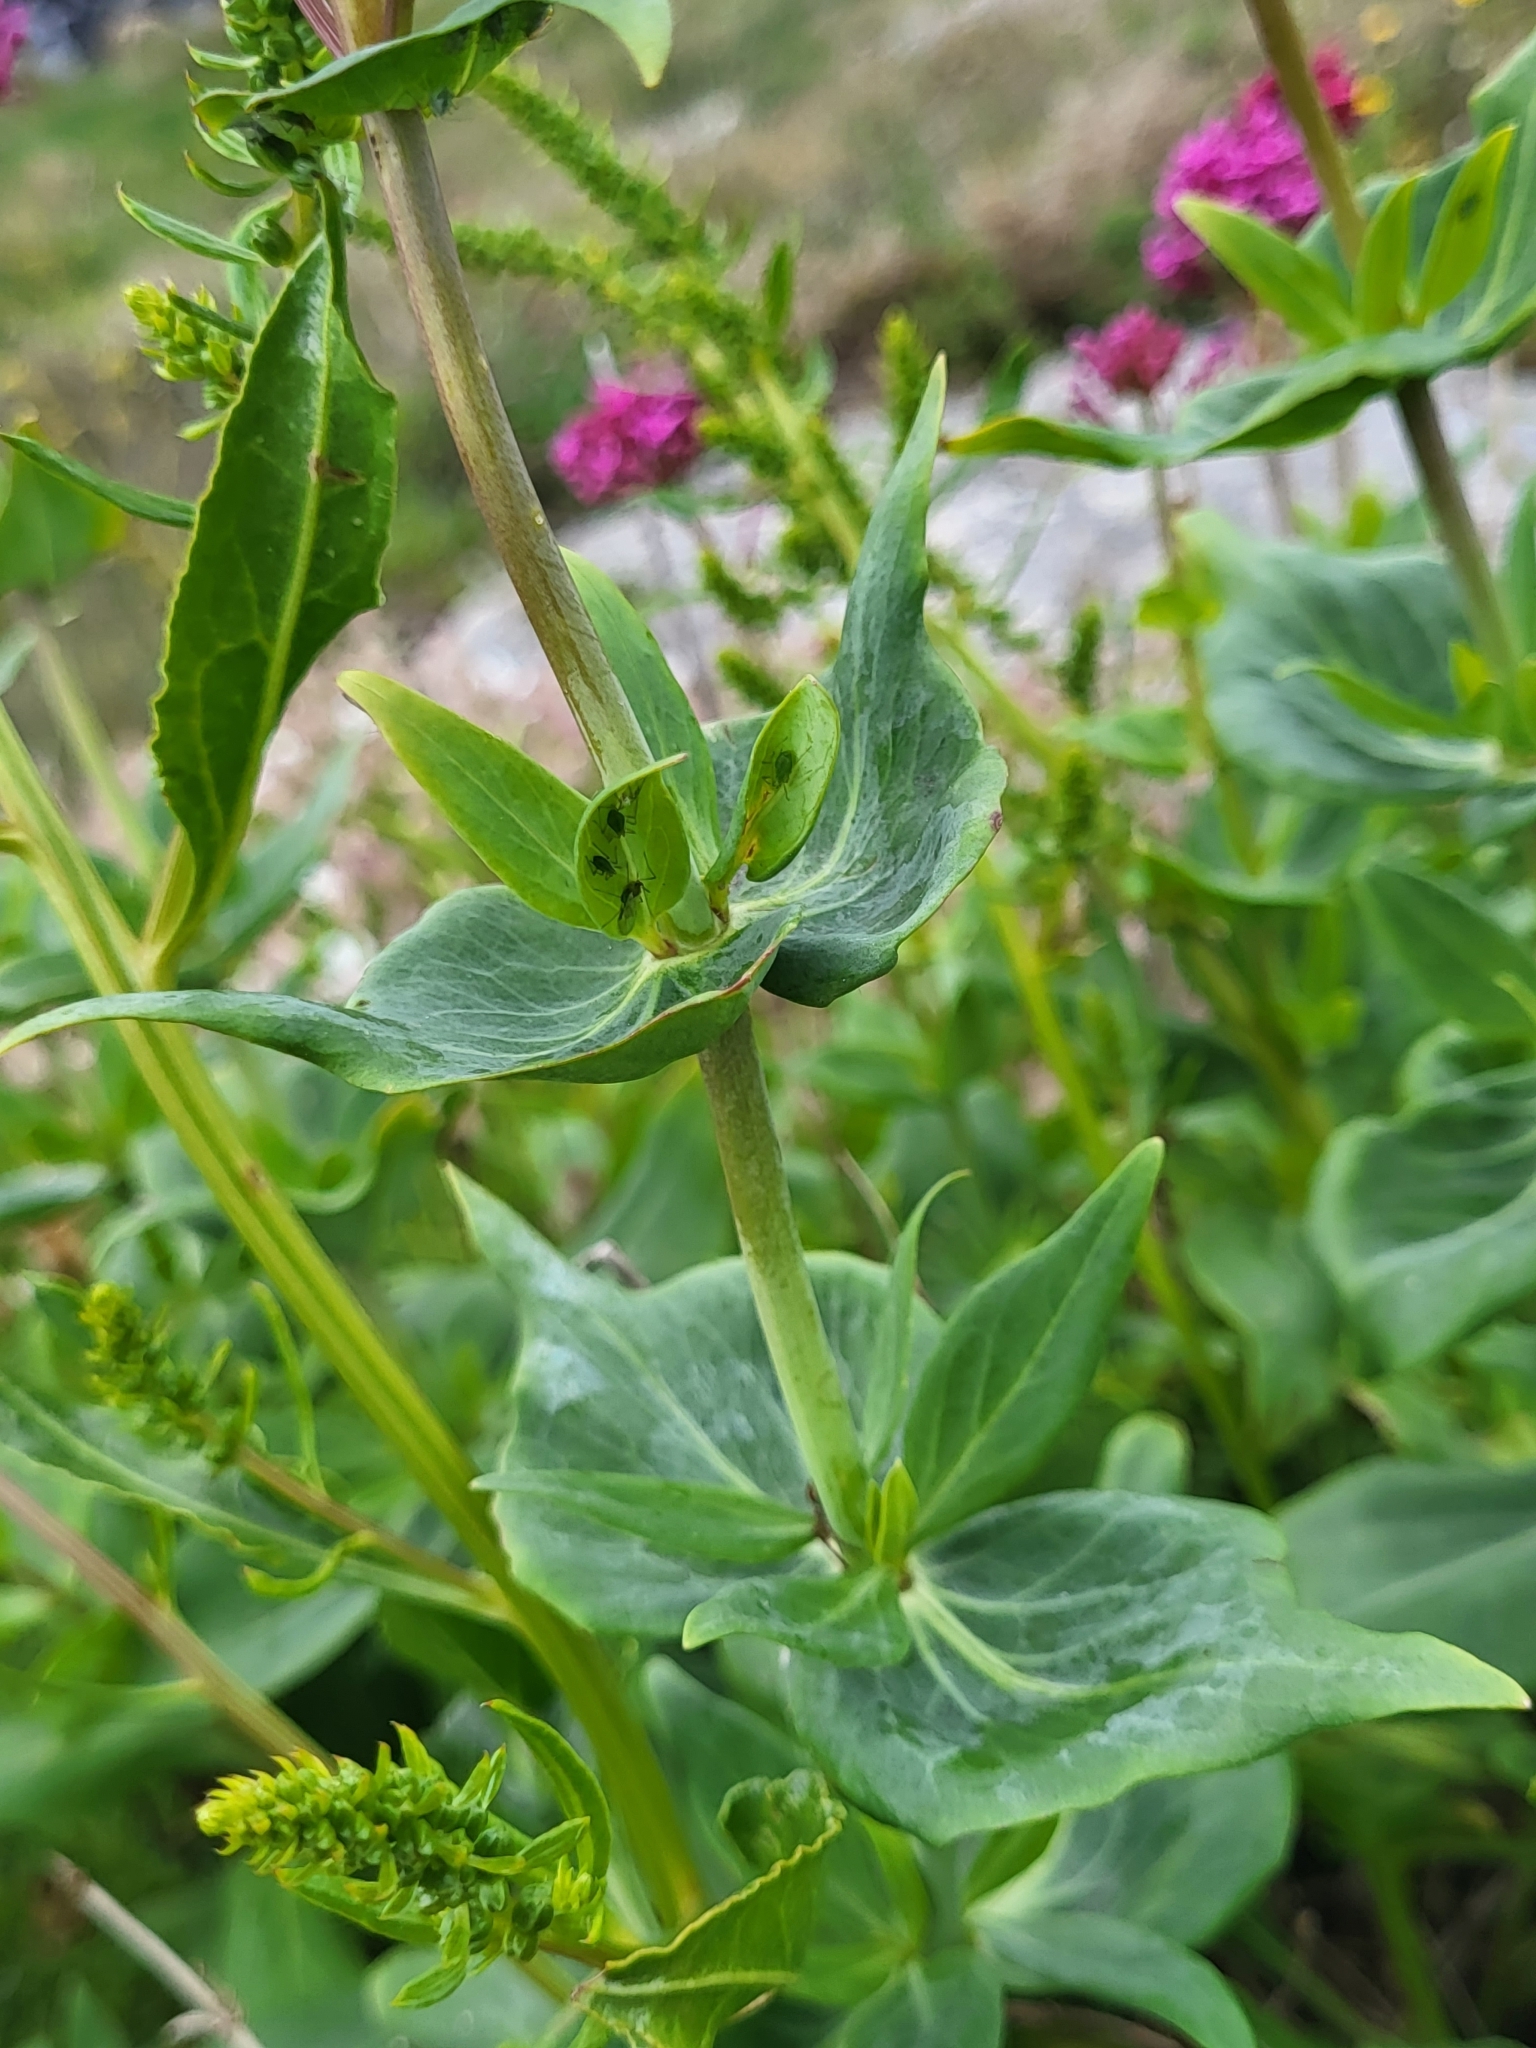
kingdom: Plantae
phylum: Tracheophyta
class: Magnoliopsida
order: Dipsacales
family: Caprifoliaceae
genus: Centranthus
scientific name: Centranthus ruber
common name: Red valerian
